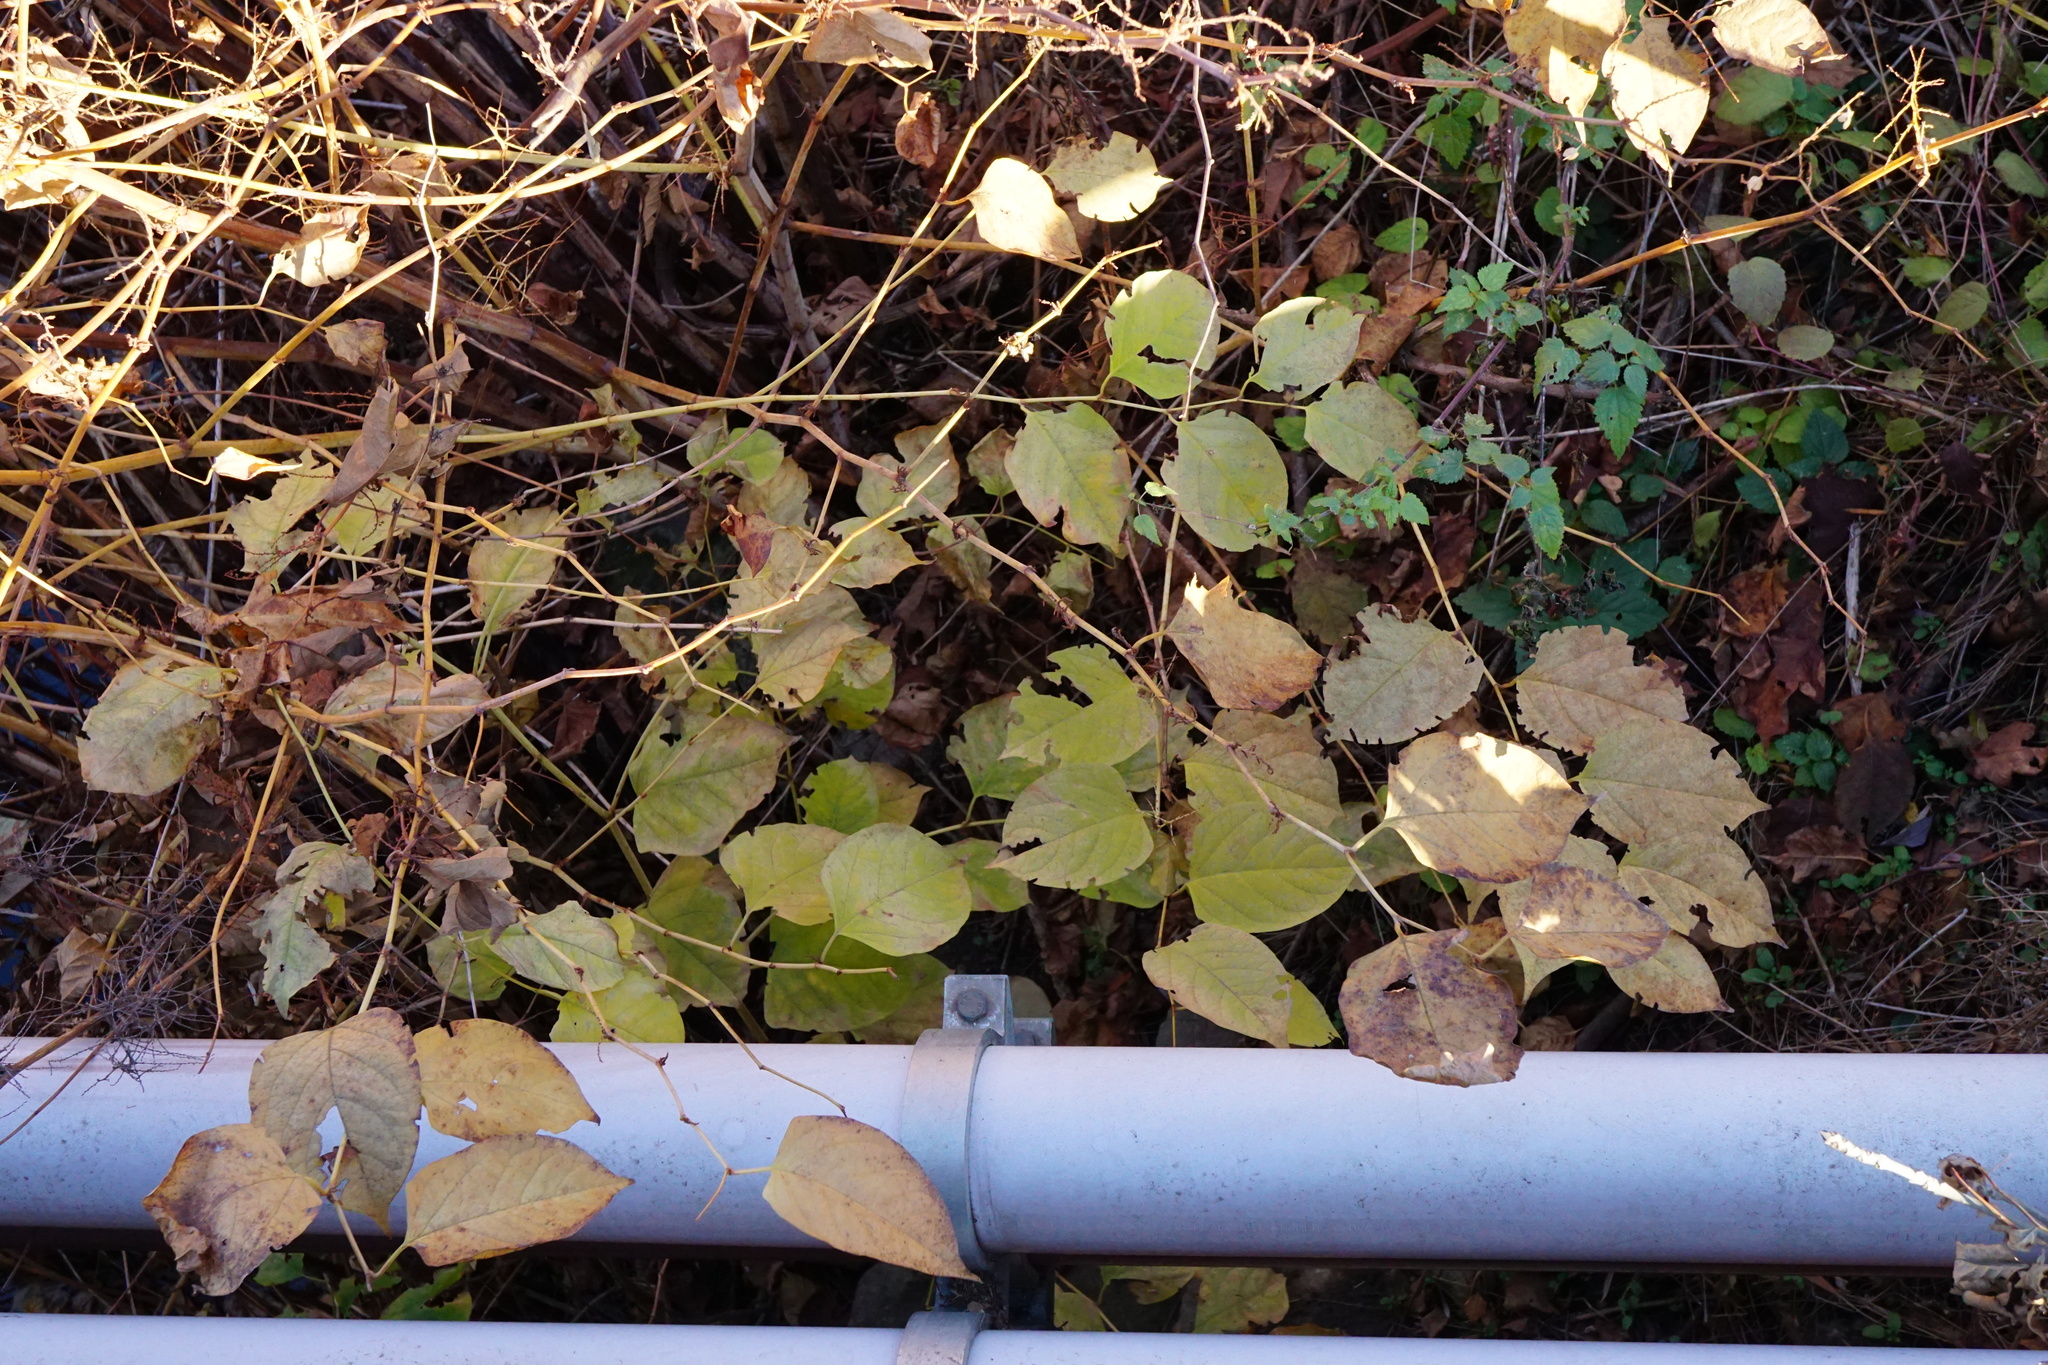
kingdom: Plantae
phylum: Tracheophyta
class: Magnoliopsida
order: Caryophyllales
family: Polygonaceae
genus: Reynoutria
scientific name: Reynoutria japonica
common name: Japanese knotweed
